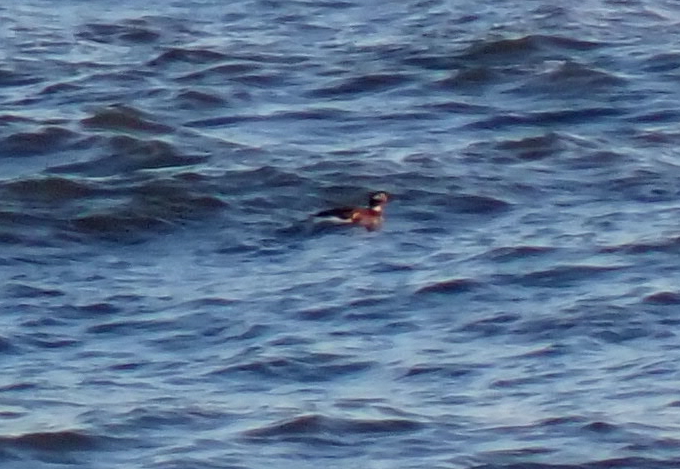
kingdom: Animalia
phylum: Chordata
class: Aves
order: Anseriformes
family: Anatidae
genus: Clangula
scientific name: Clangula hyemalis
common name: Long-tailed duck
